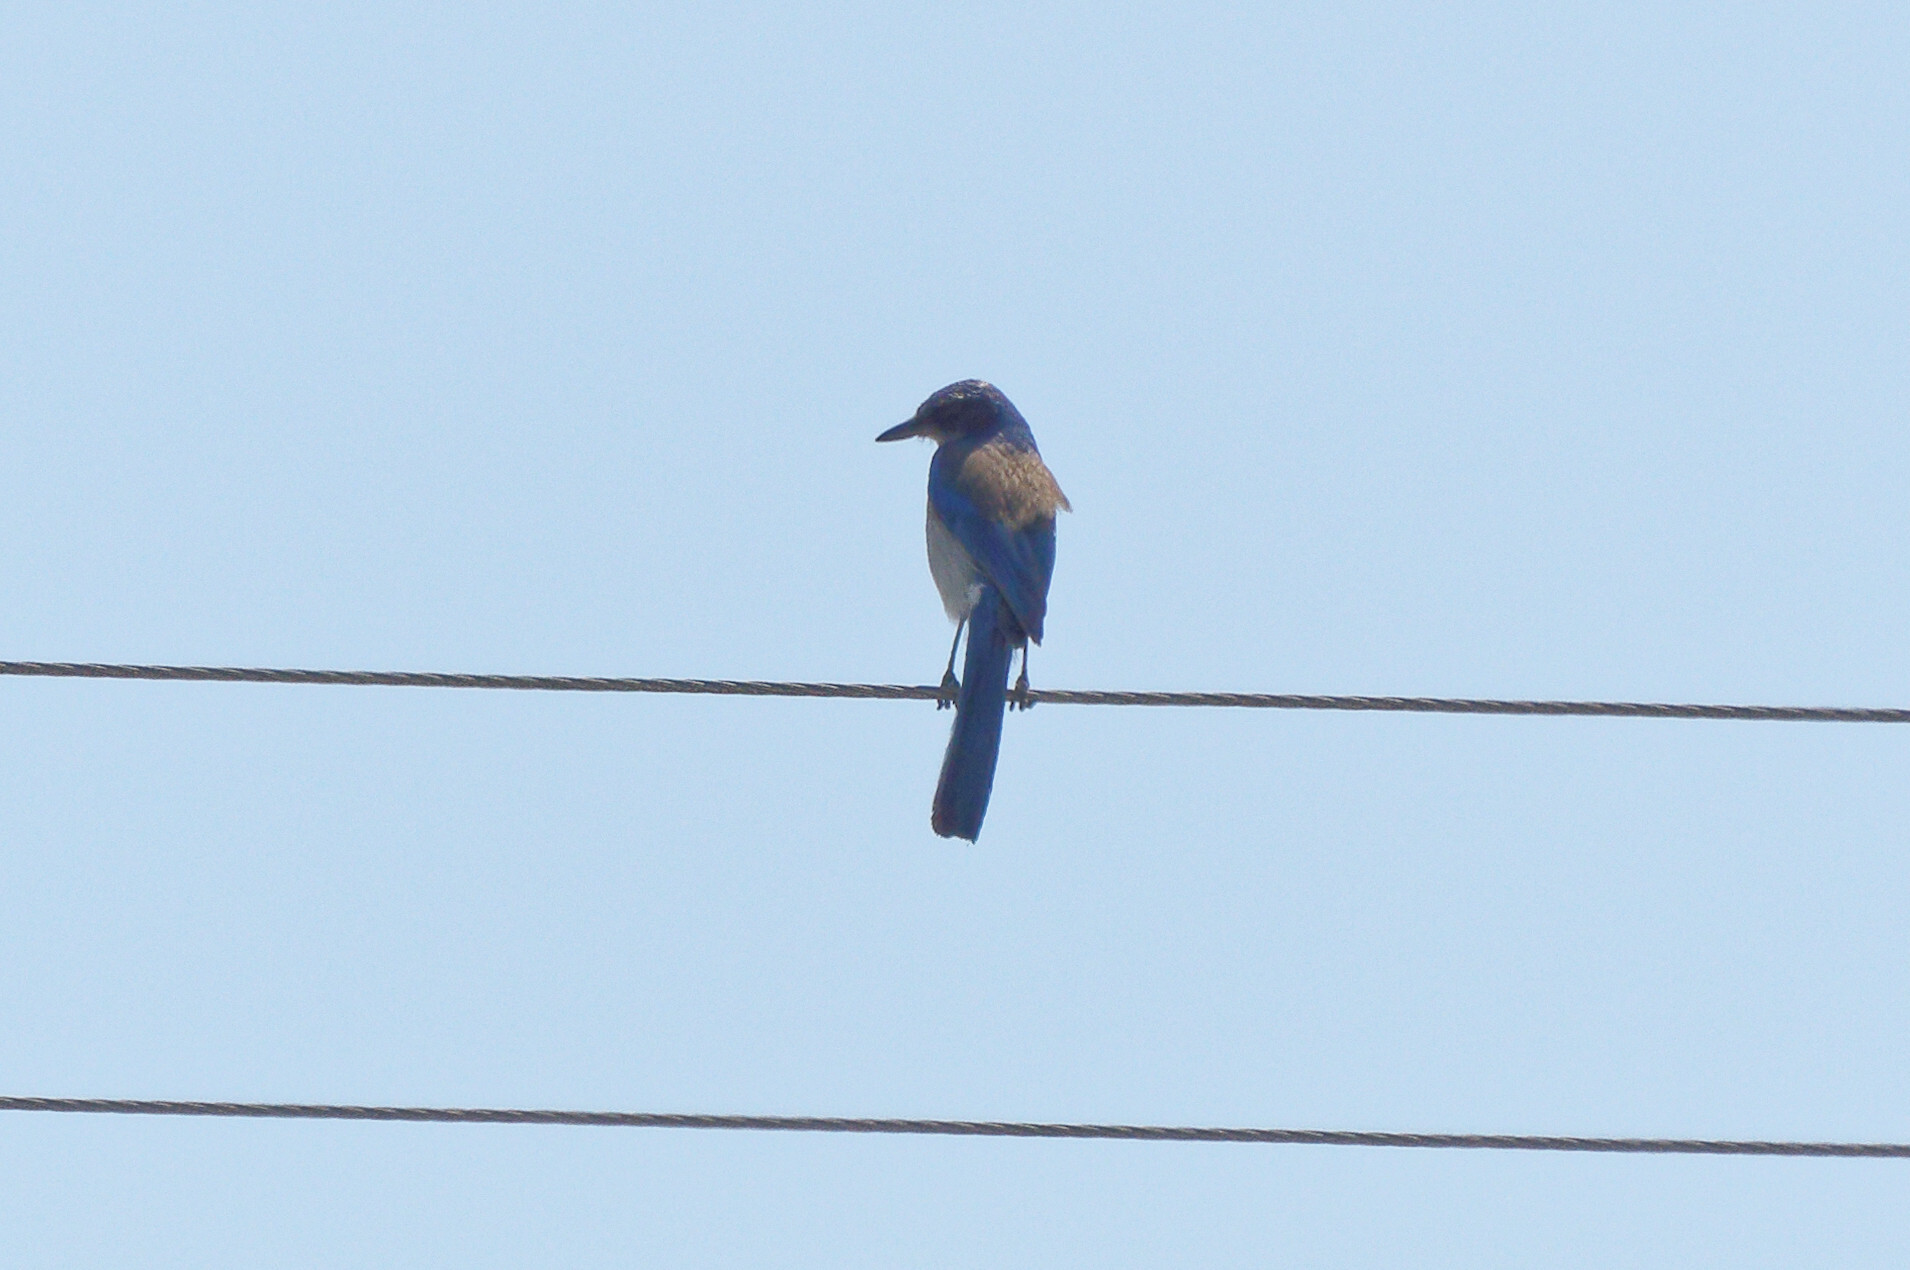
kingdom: Animalia
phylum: Chordata
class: Aves
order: Passeriformes
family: Corvidae
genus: Aphelocoma
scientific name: Aphelocoma californica
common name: California scrub-jay
